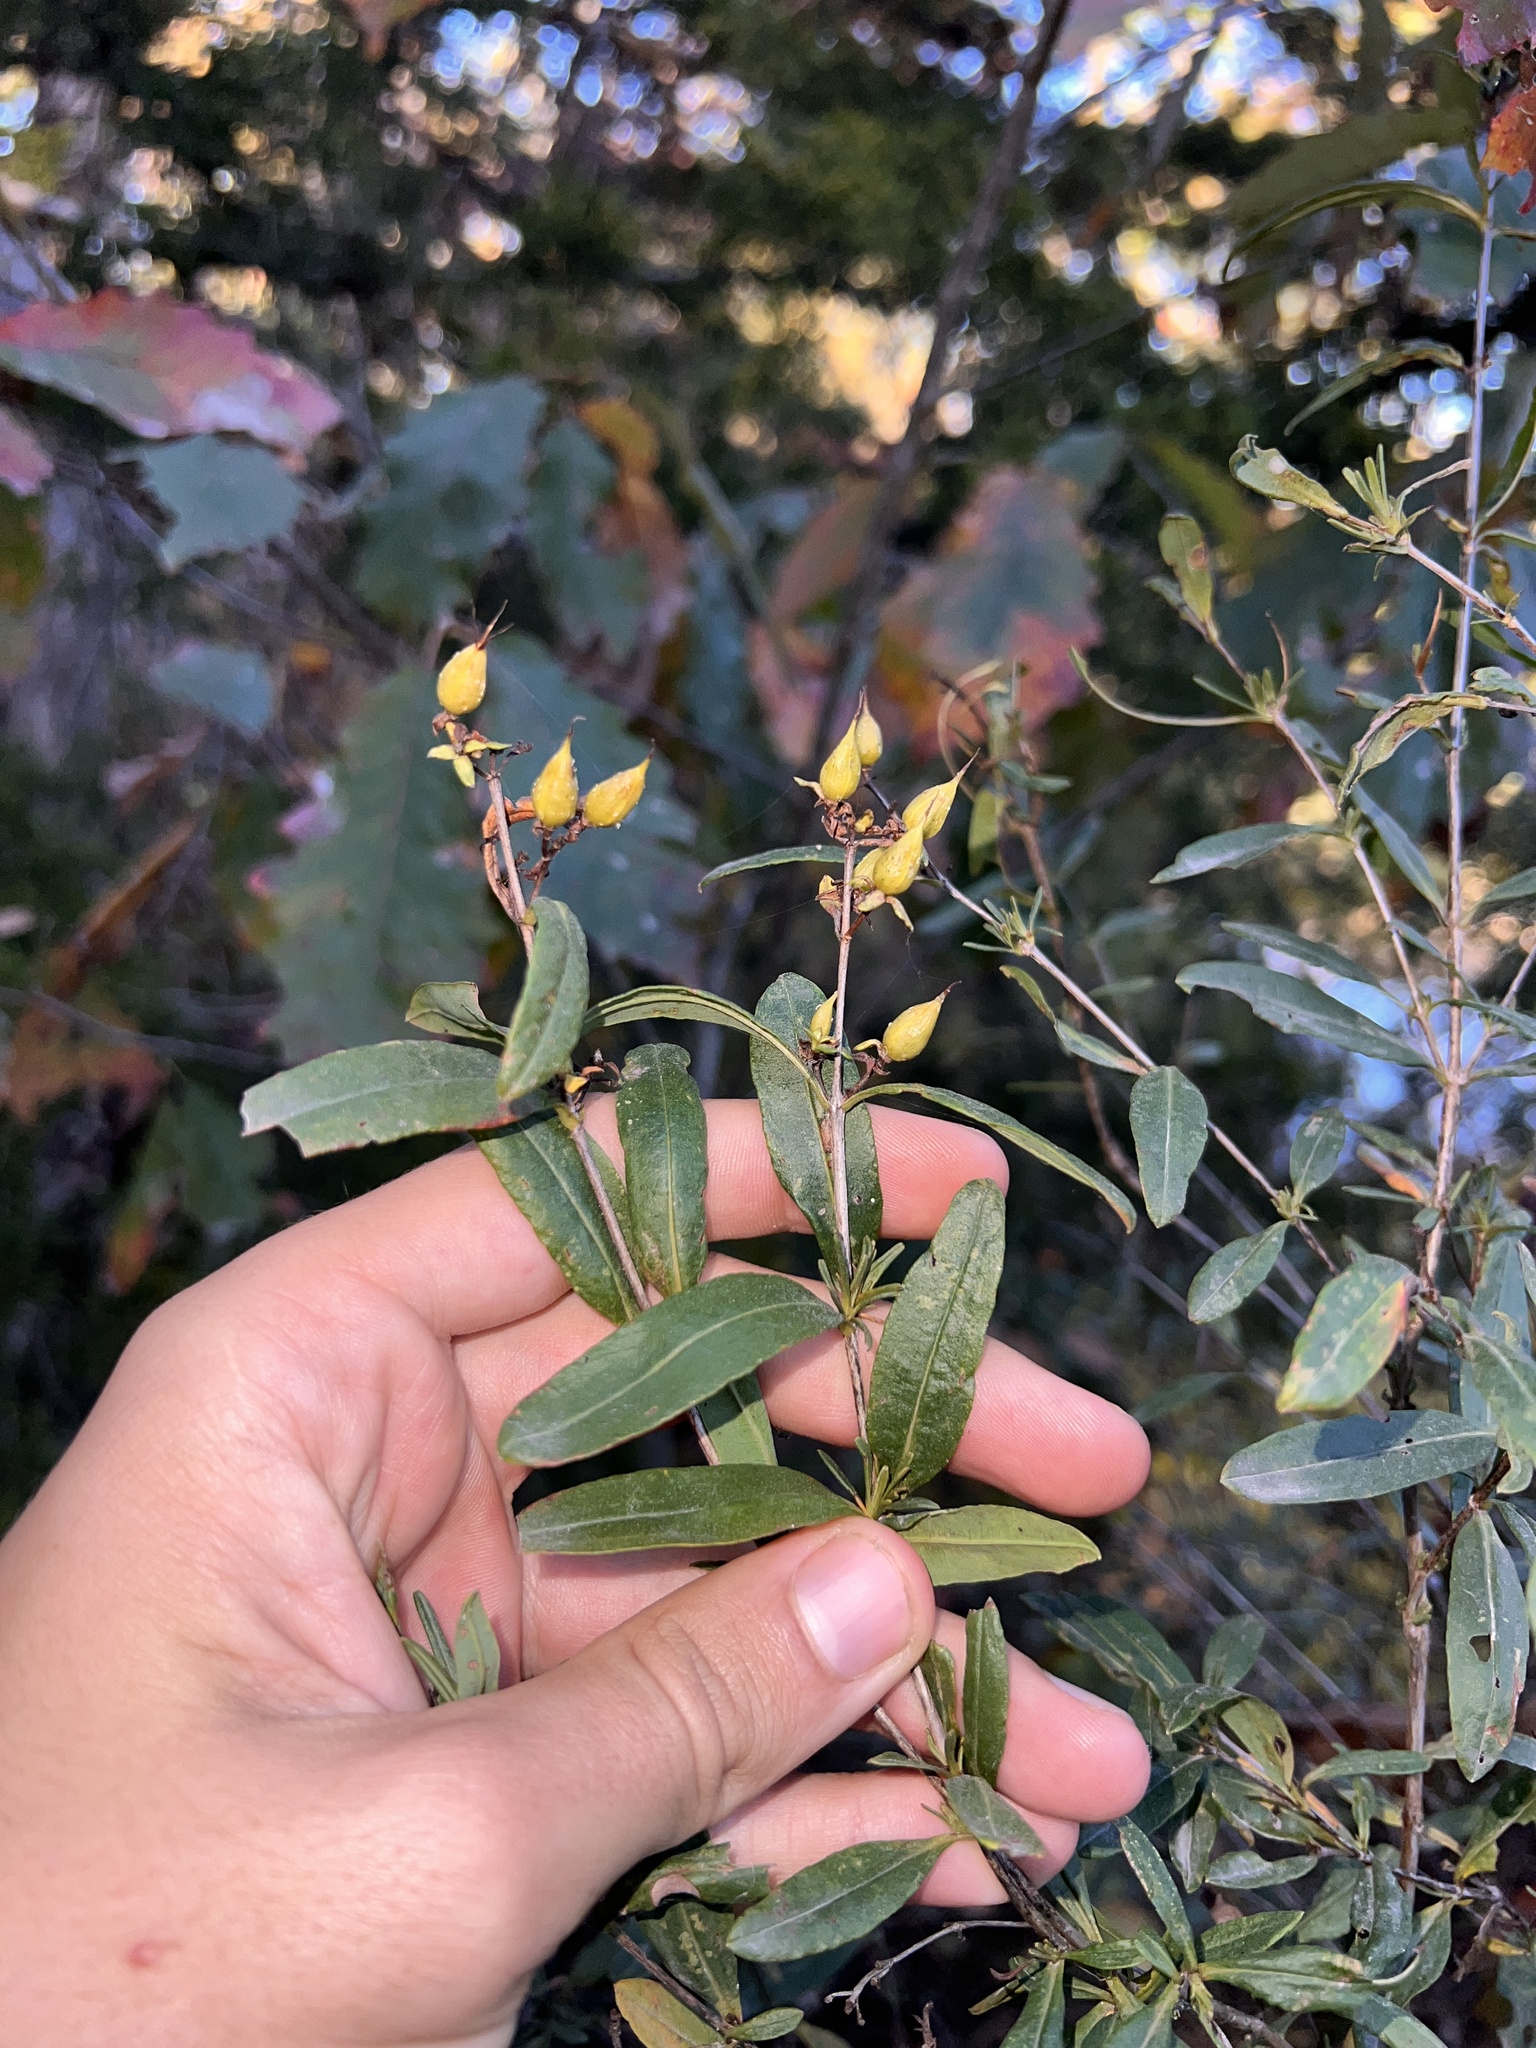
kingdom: Plantae
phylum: Tracheophyta
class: Magnoliopsida
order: Malpighiales
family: Hypericaceae
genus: Hypericum
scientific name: Hypericum prolificum
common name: Shrubby st. john's-wort
